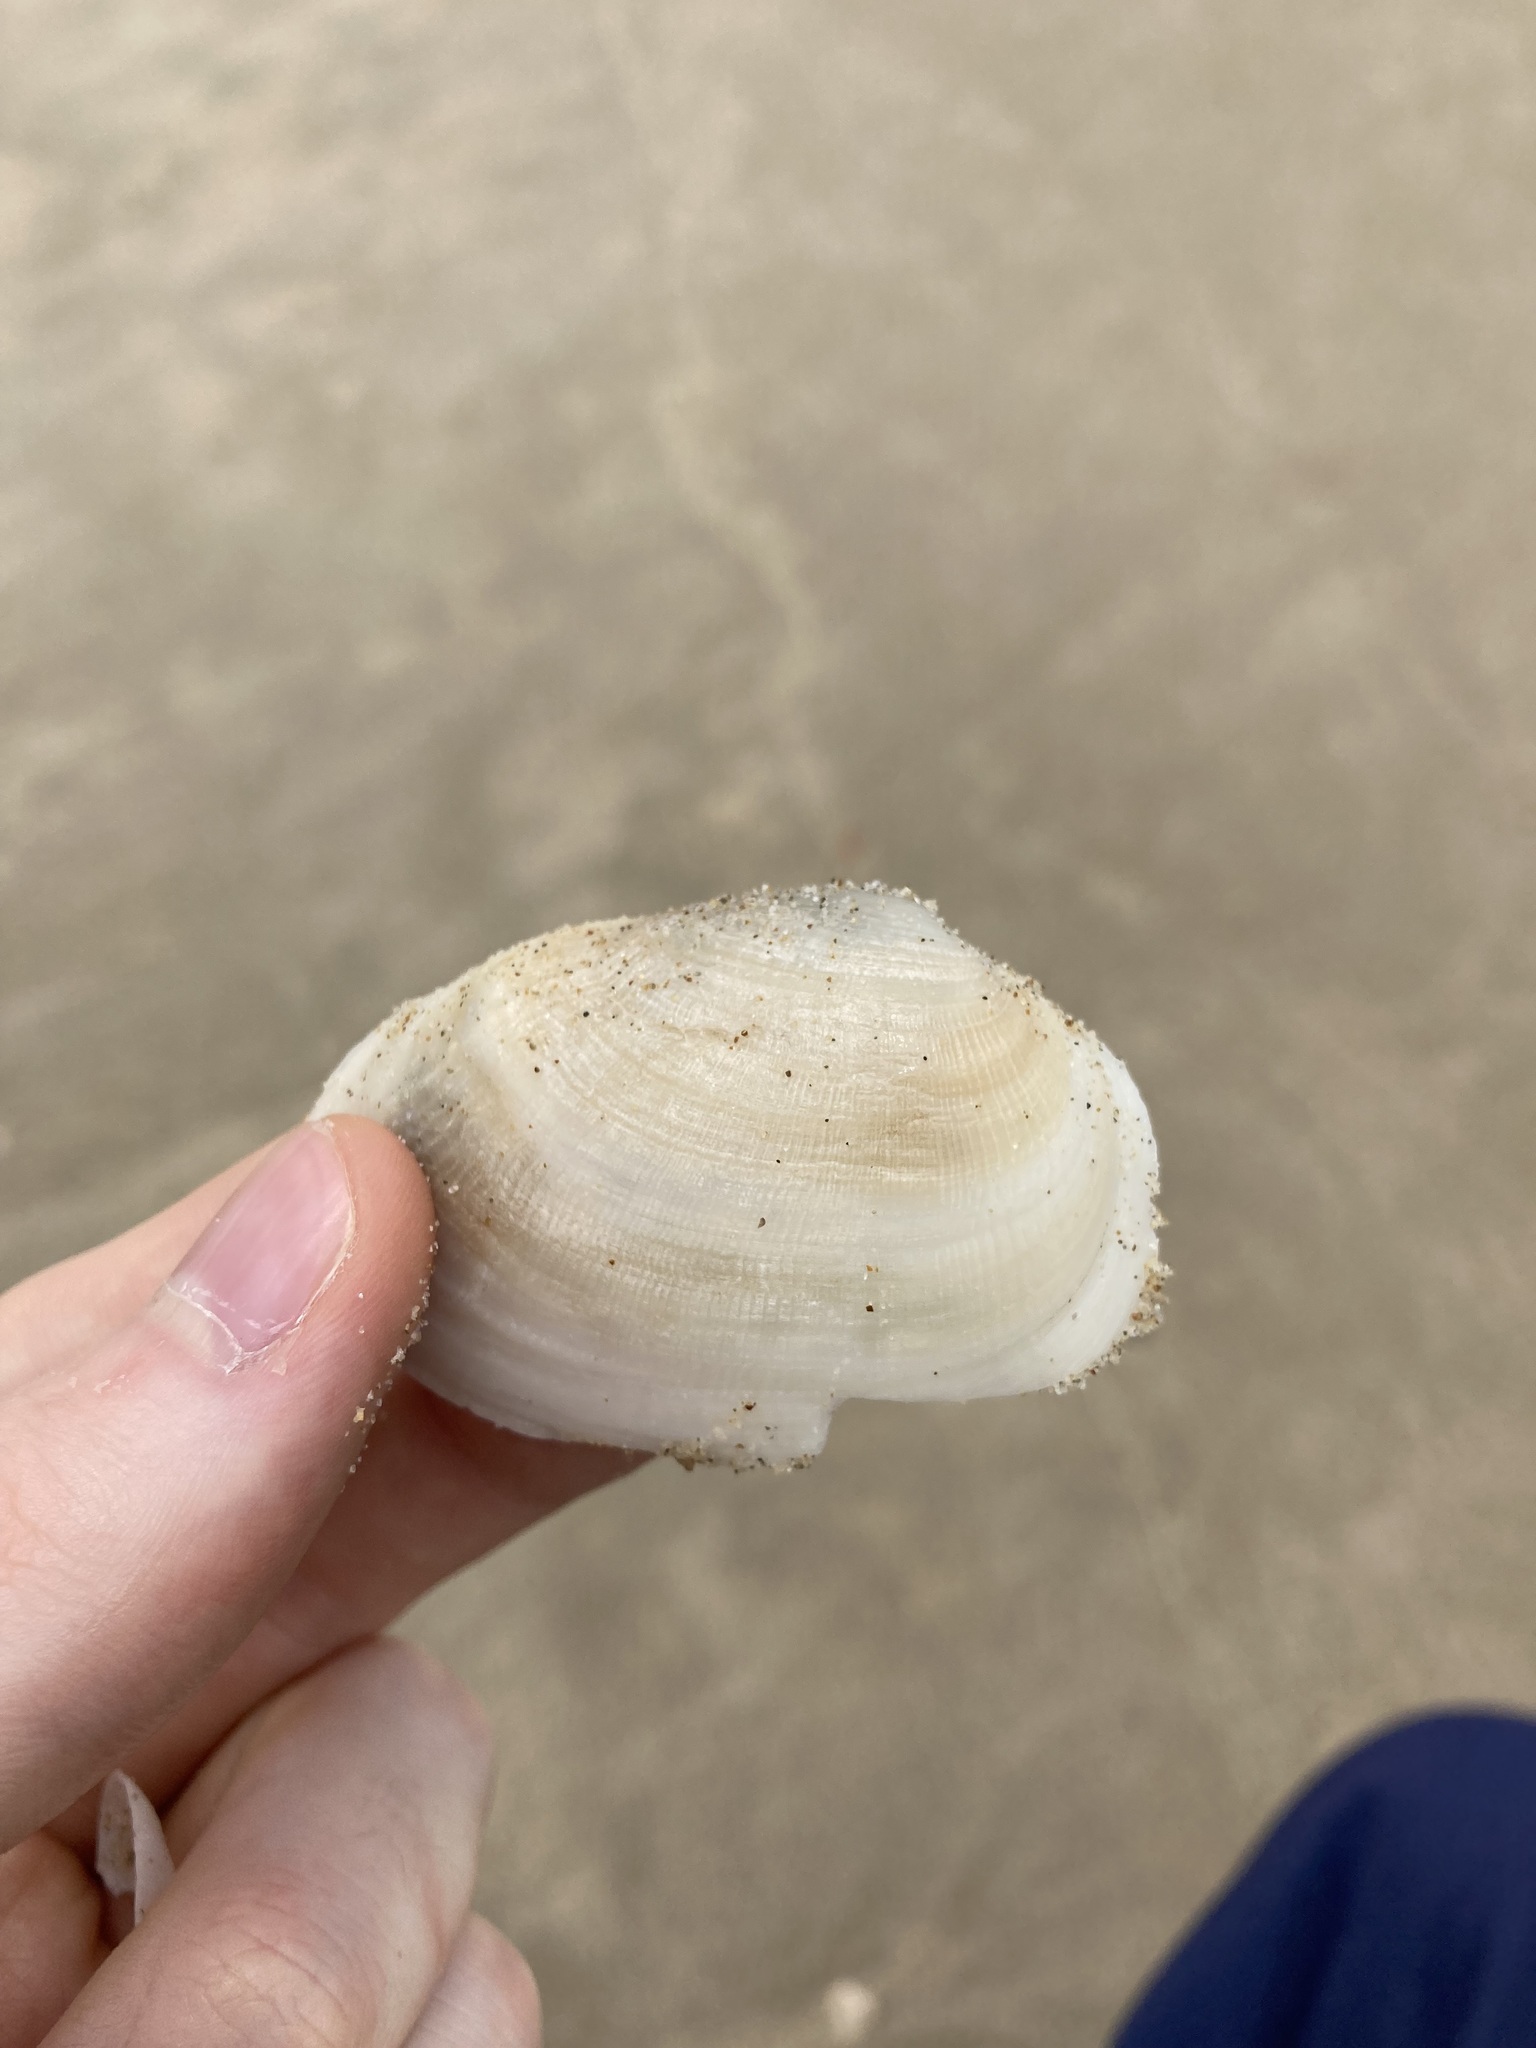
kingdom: Animalia
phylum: Mollusca
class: Bivalvia
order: Venerida
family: Mactridae
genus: Meropesta
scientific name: Meropesta nicobarica
